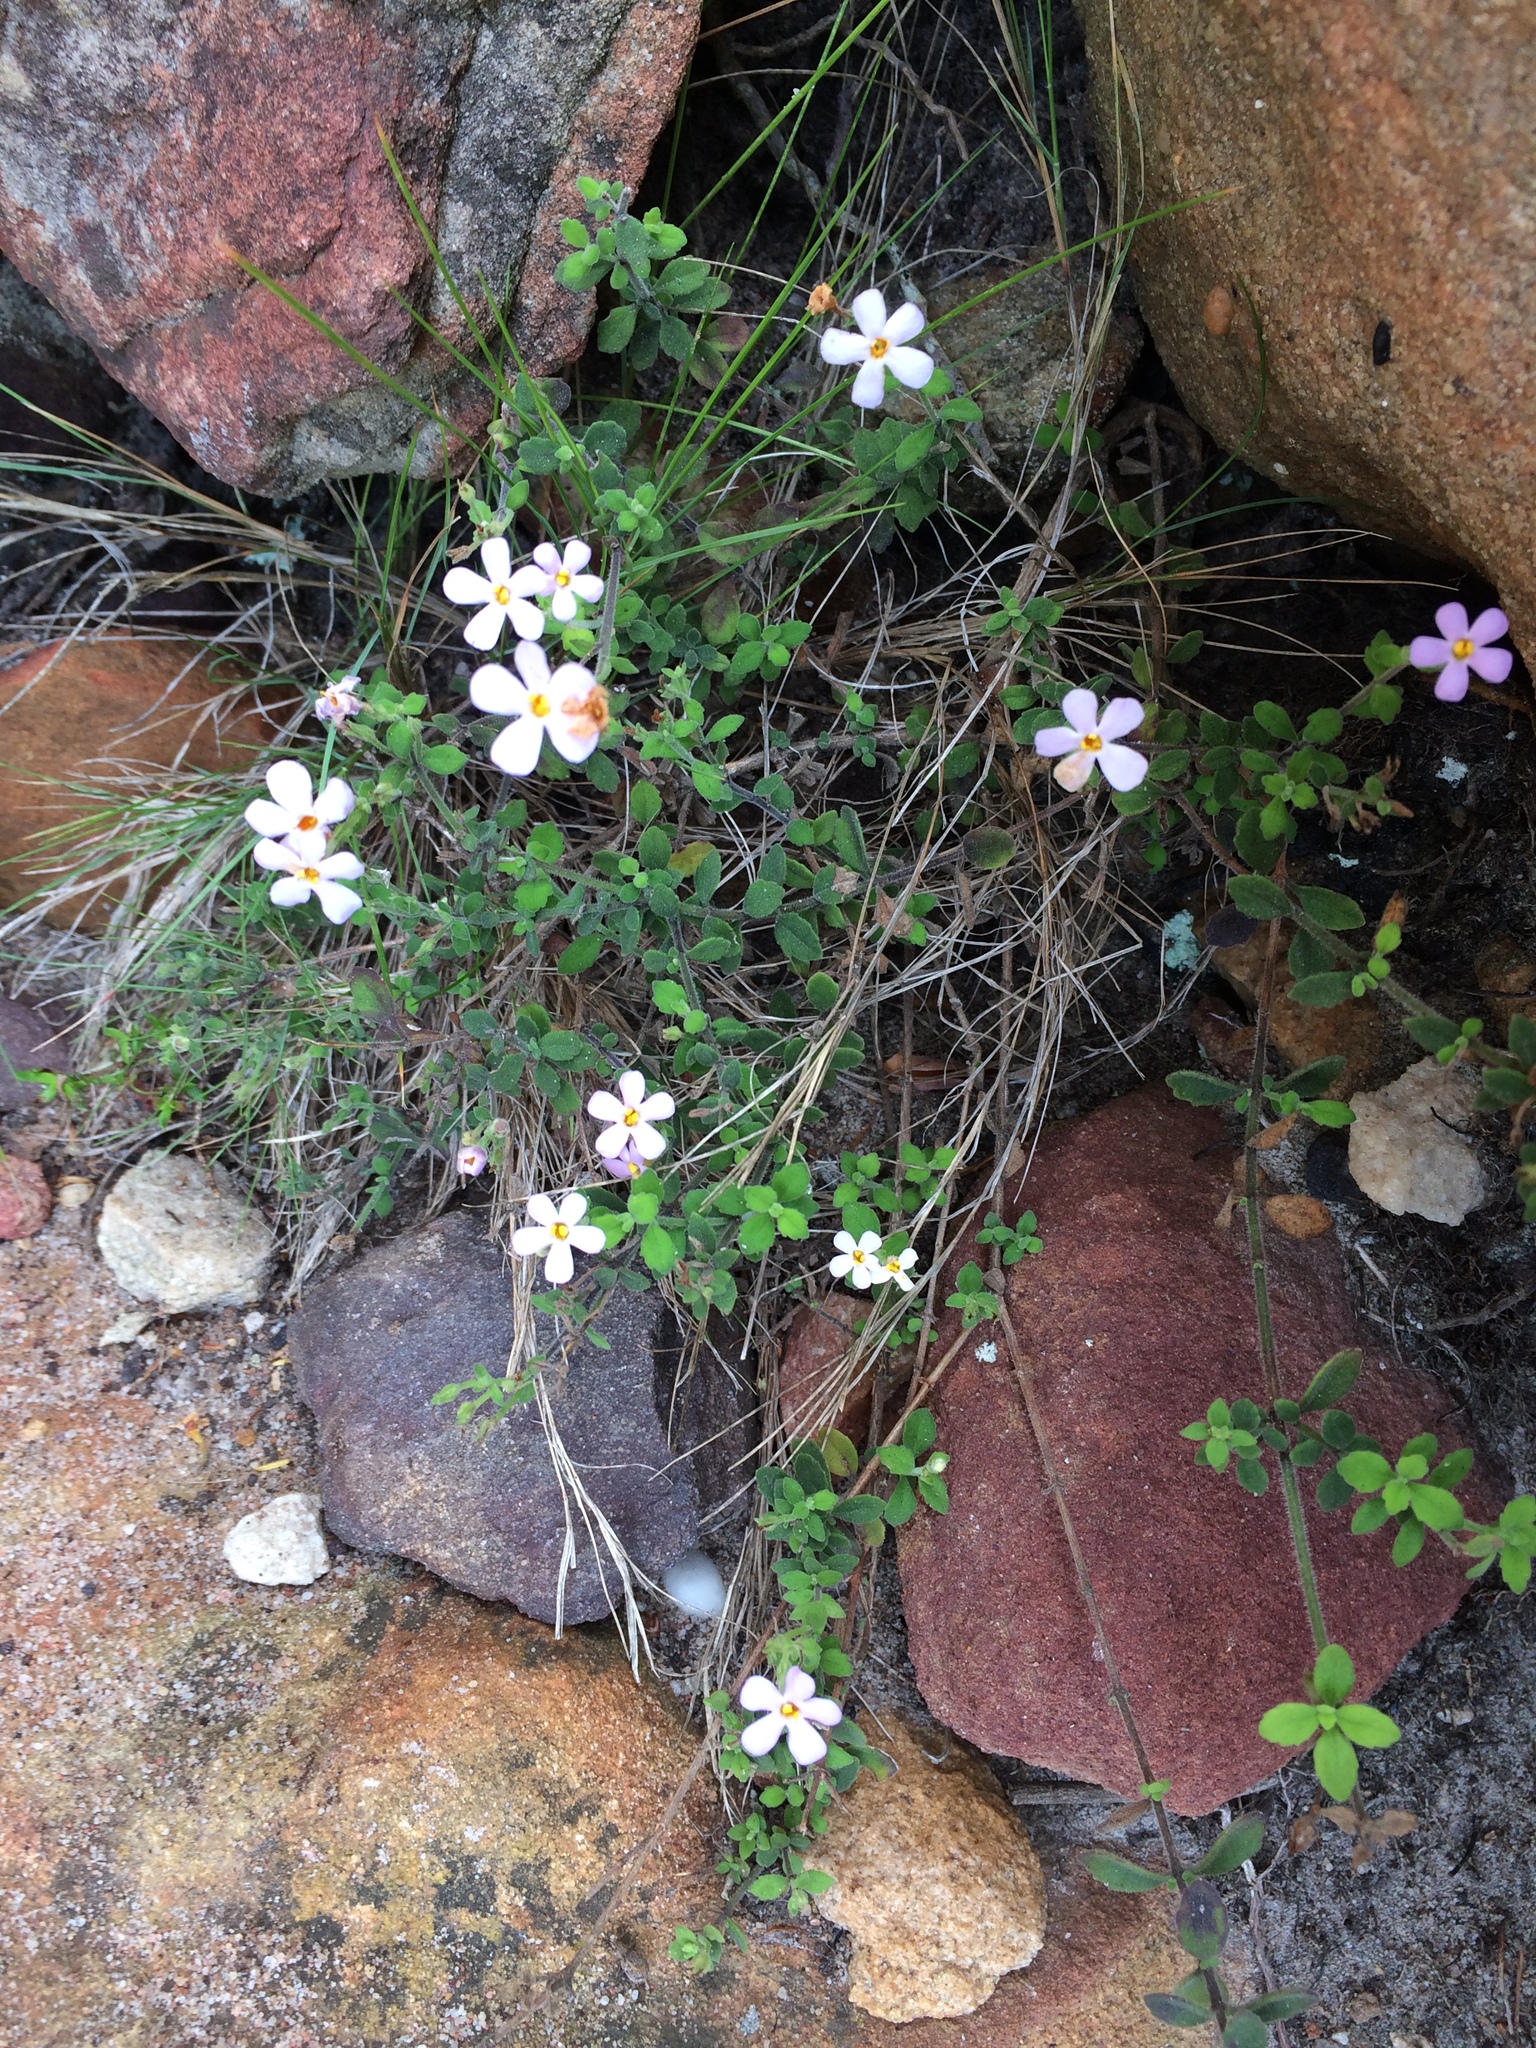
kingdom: Plantae
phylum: Tracheophyta
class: Magnoliopsida
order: Lamiales
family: Scrophulariaceae
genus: Chaenostoma
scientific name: Chaenostoma hispidum
